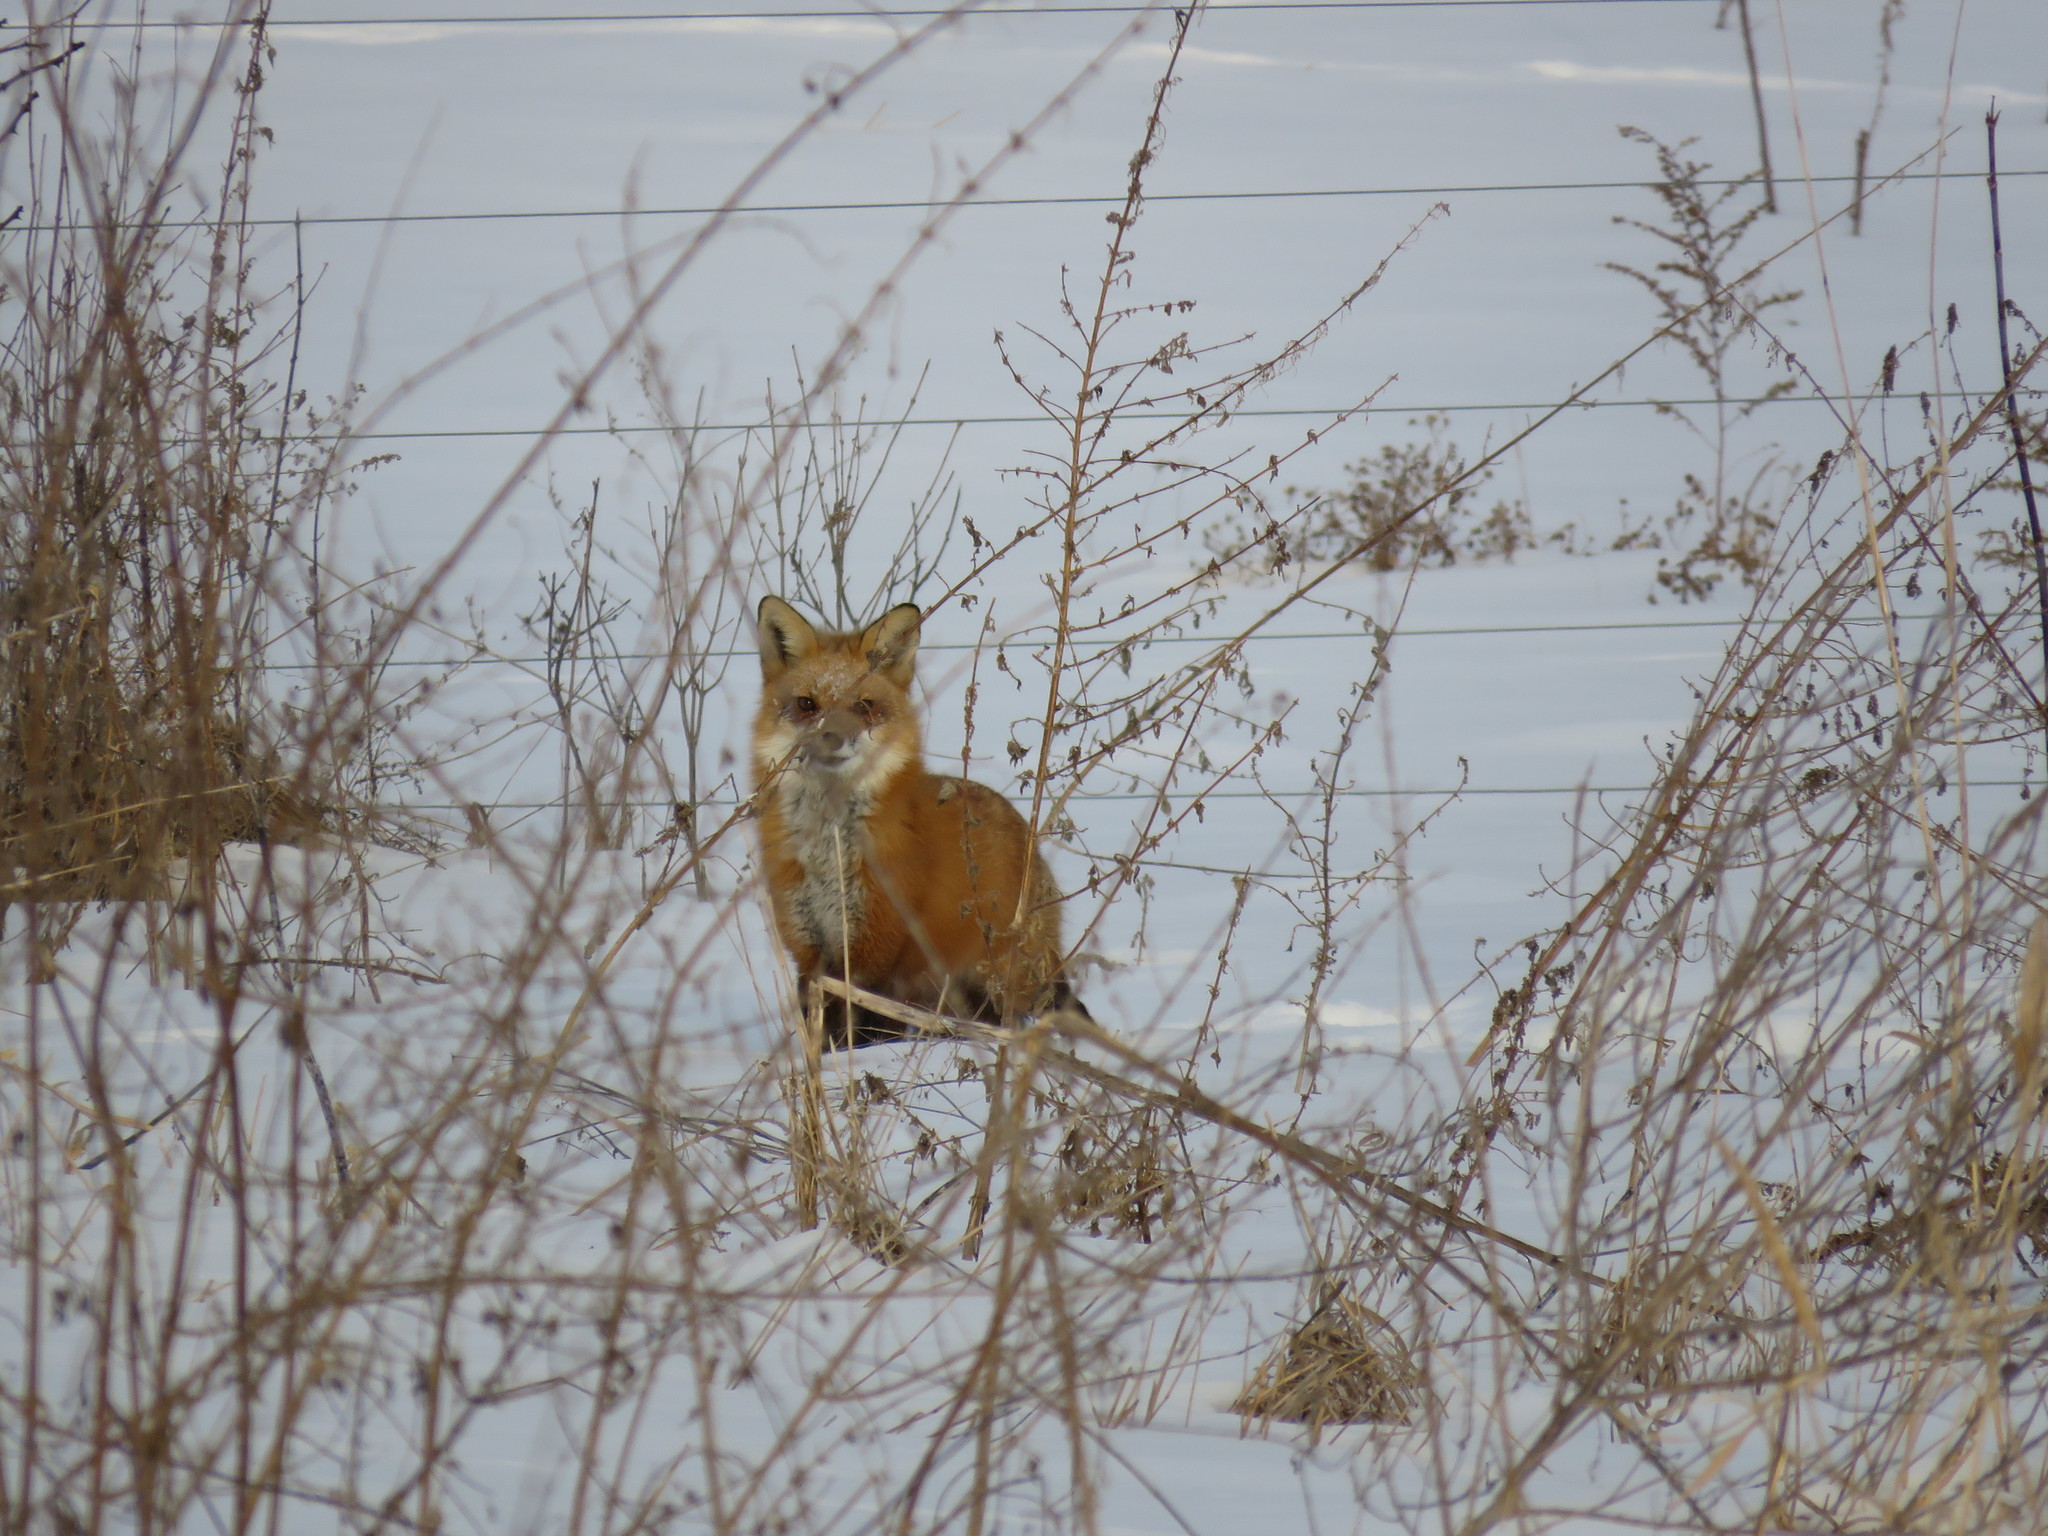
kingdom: Animalia
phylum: Chordata
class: Mammalia
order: Carnivora
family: Canidae
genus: Vulpes
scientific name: Vulpes vulpes
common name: Red fox
